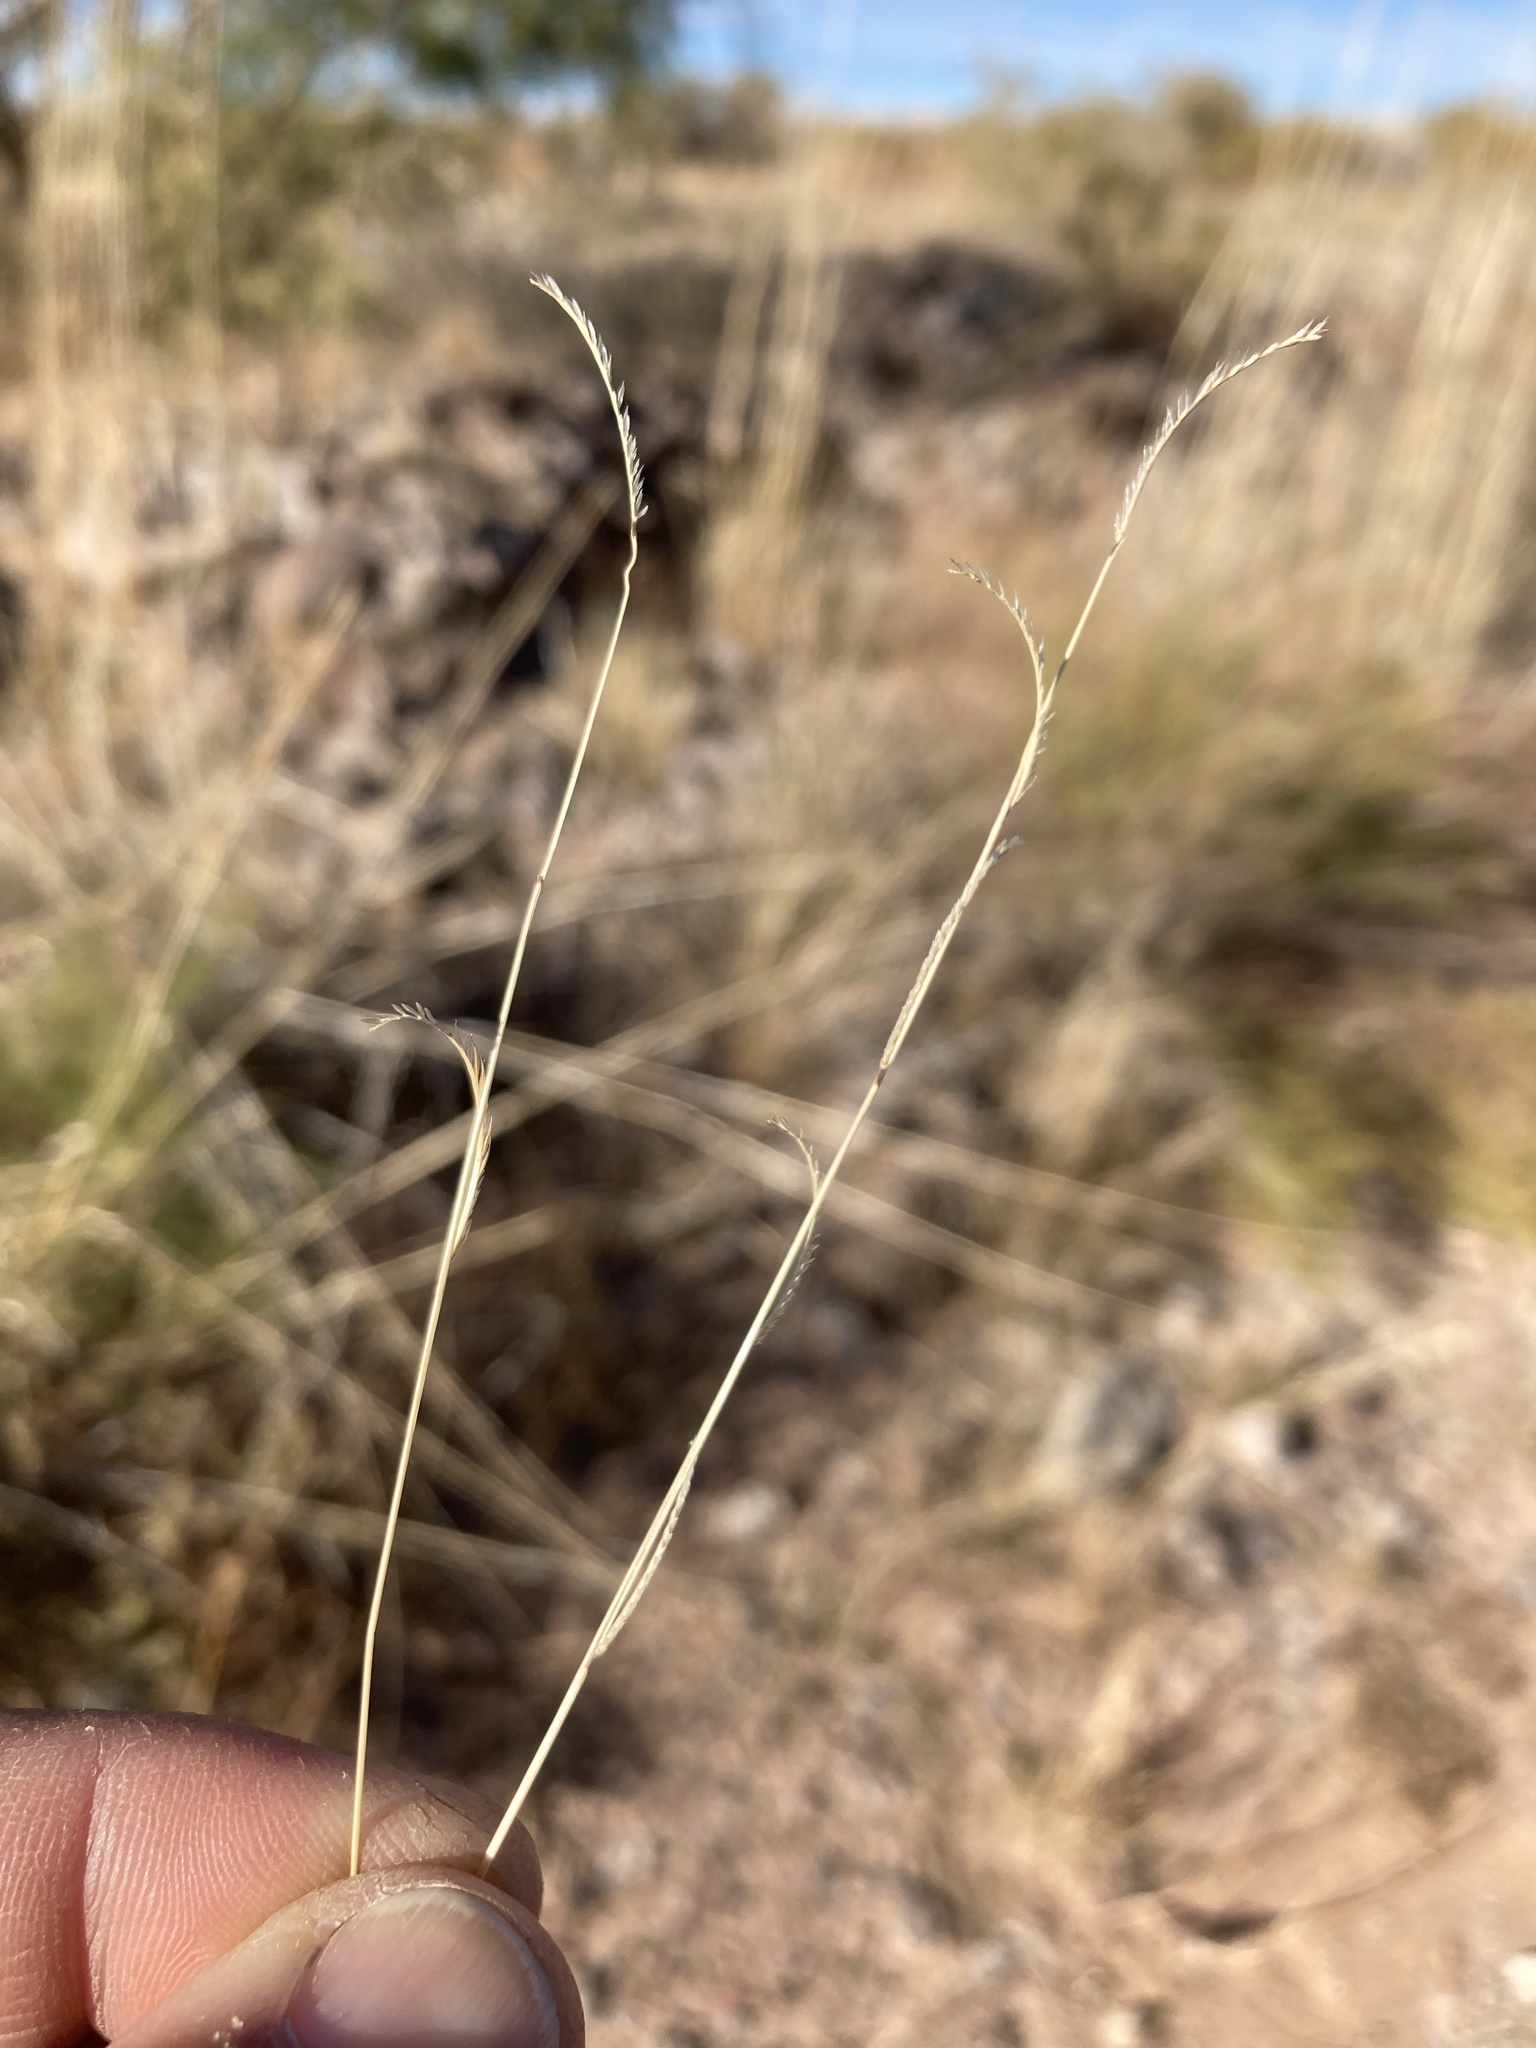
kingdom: Plantae
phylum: Tracheophyta
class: Liliopsida
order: Poales
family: Poaceae
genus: Bouteloua
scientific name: Bouteloua barbata
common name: Six-weeks grama
